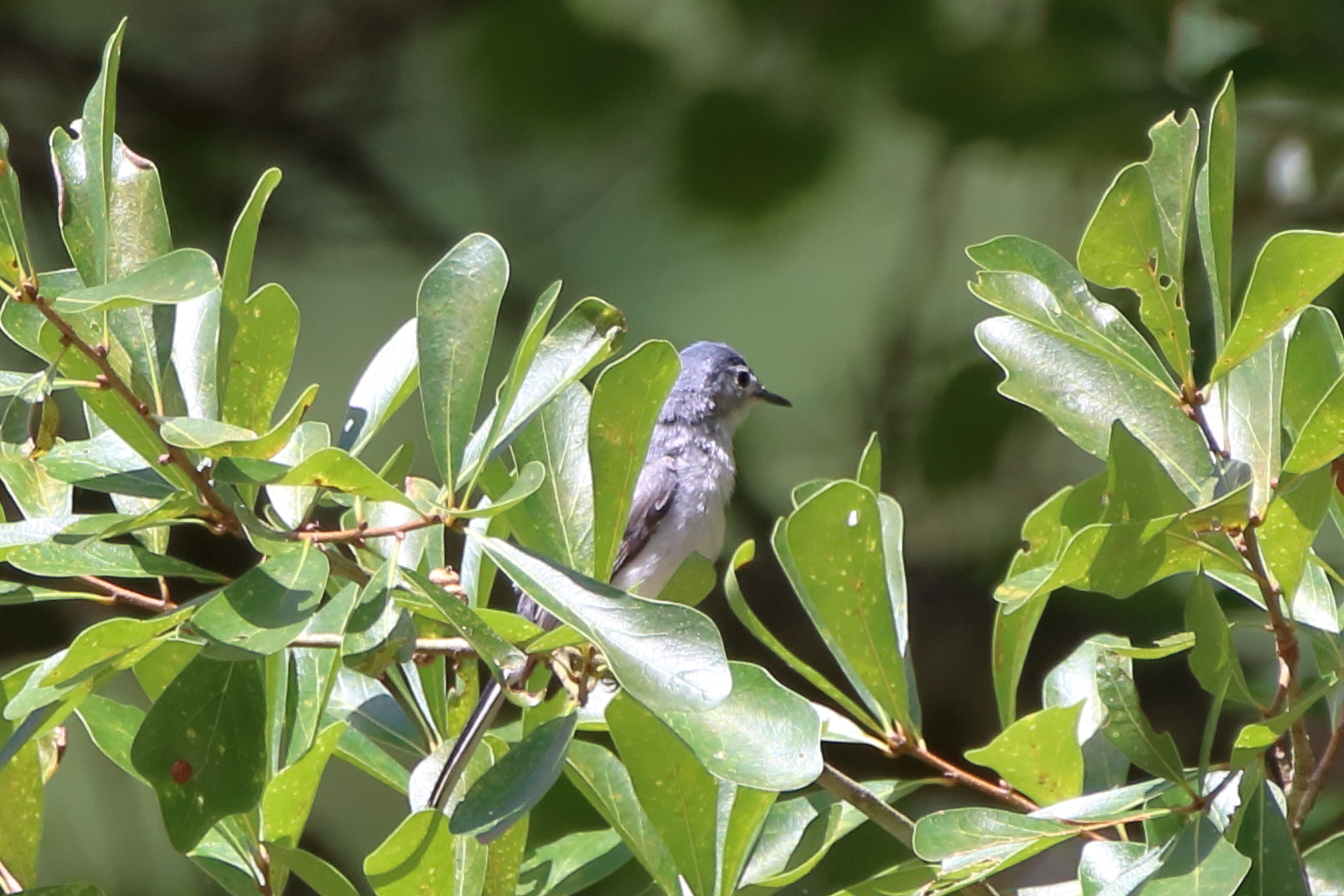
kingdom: Animalia
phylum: Chordata
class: Aves
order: Passeriformes
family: Polioptilidae
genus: Polioptila
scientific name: Polioptila caerulea
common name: Blue-gray gnatcatcher
